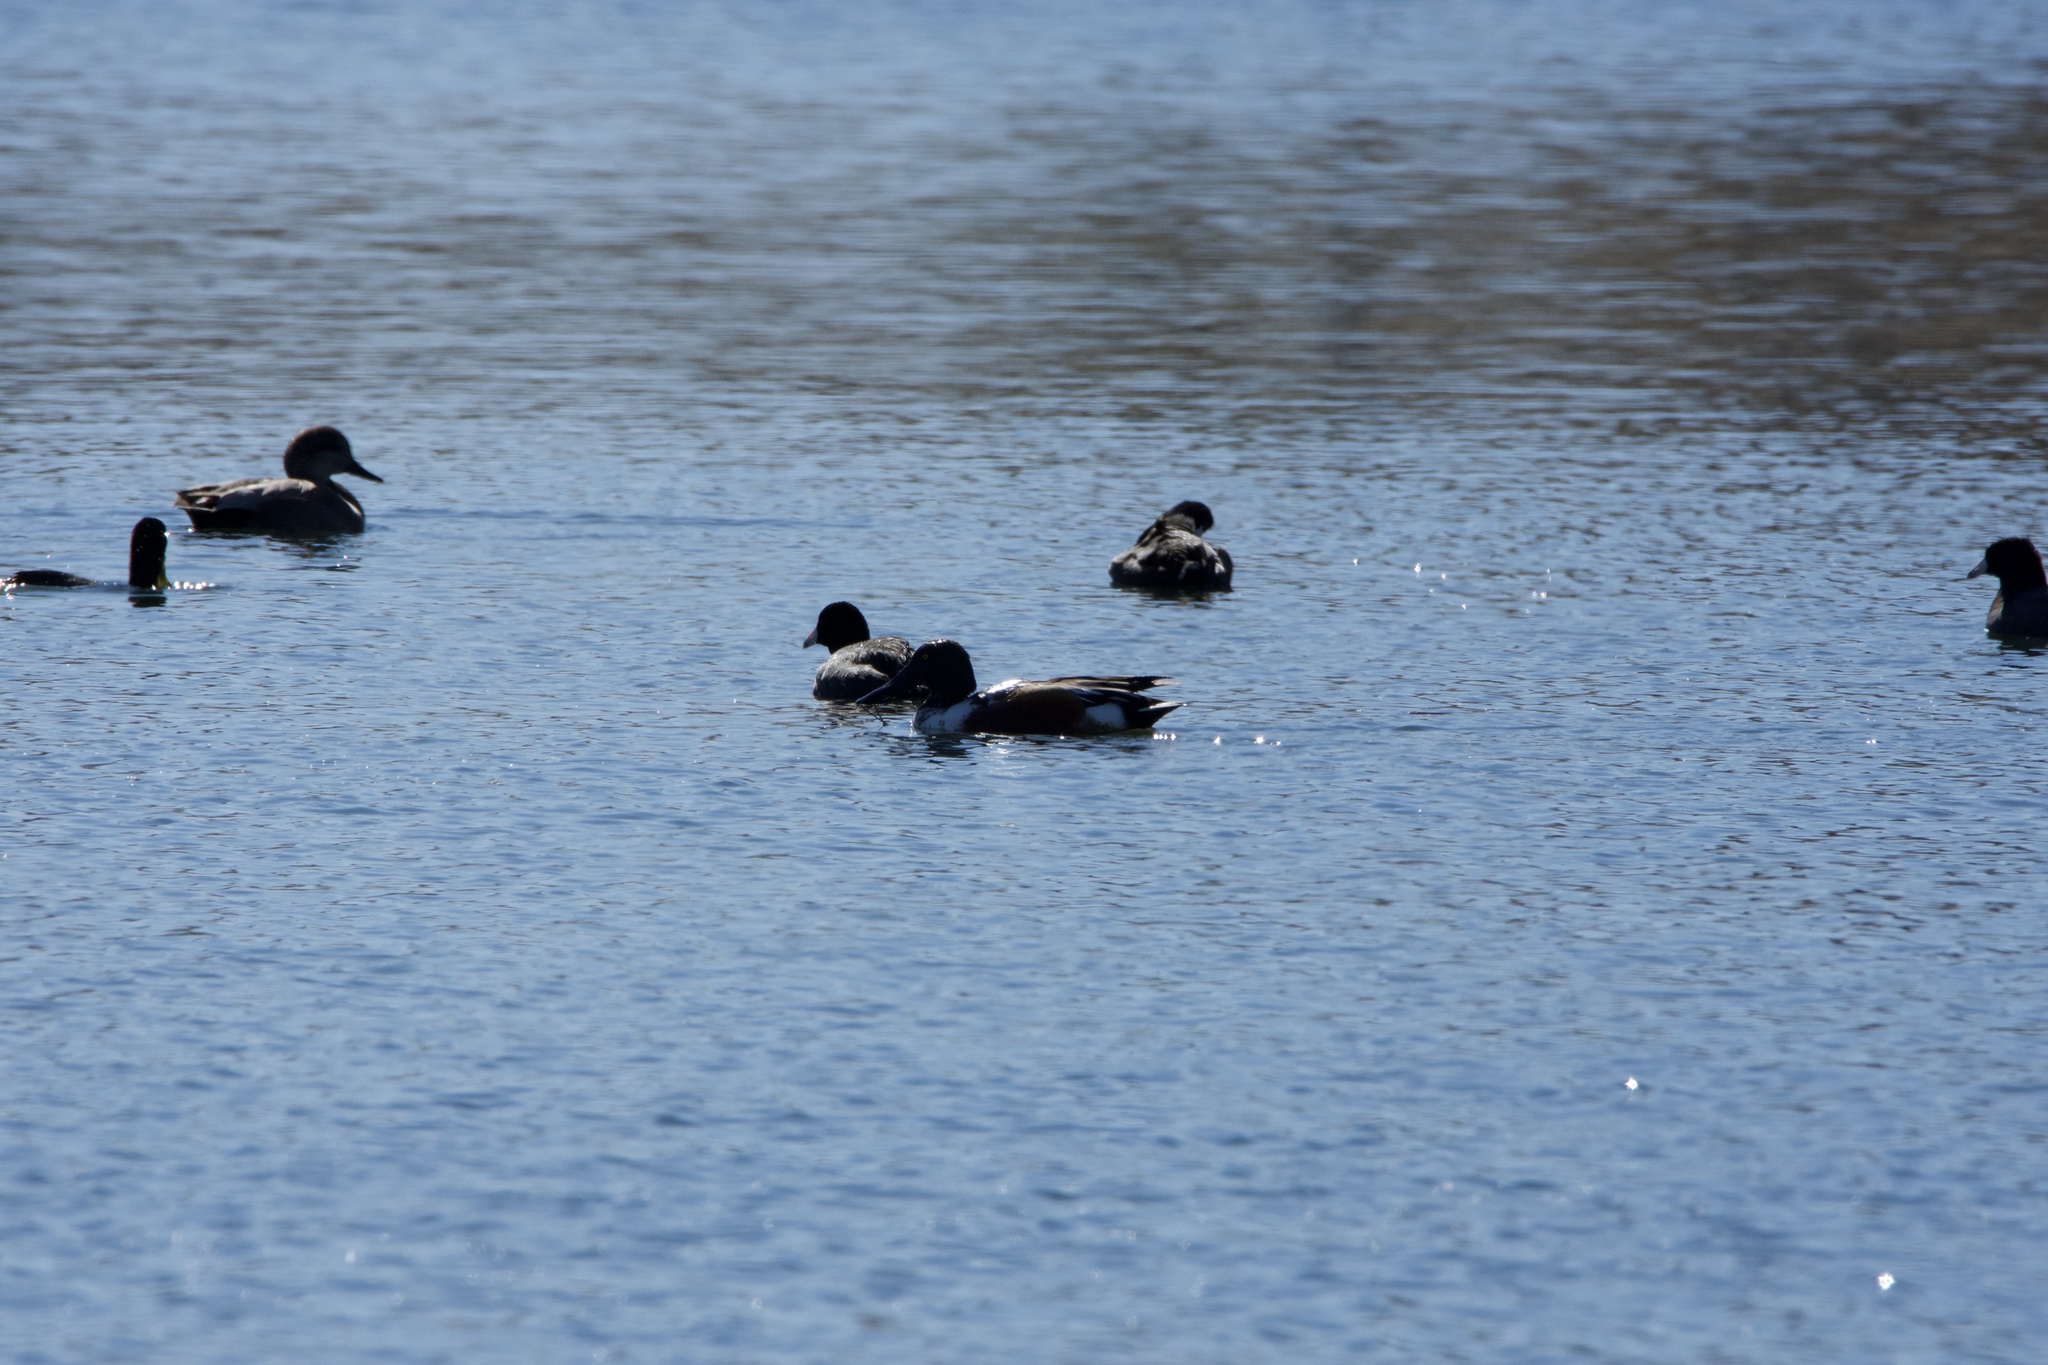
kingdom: Animalia
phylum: Chordata
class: Aves
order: Anseriformes
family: Anatidae
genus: Spatula
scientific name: Spatula clypeata
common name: Northern shoveler
